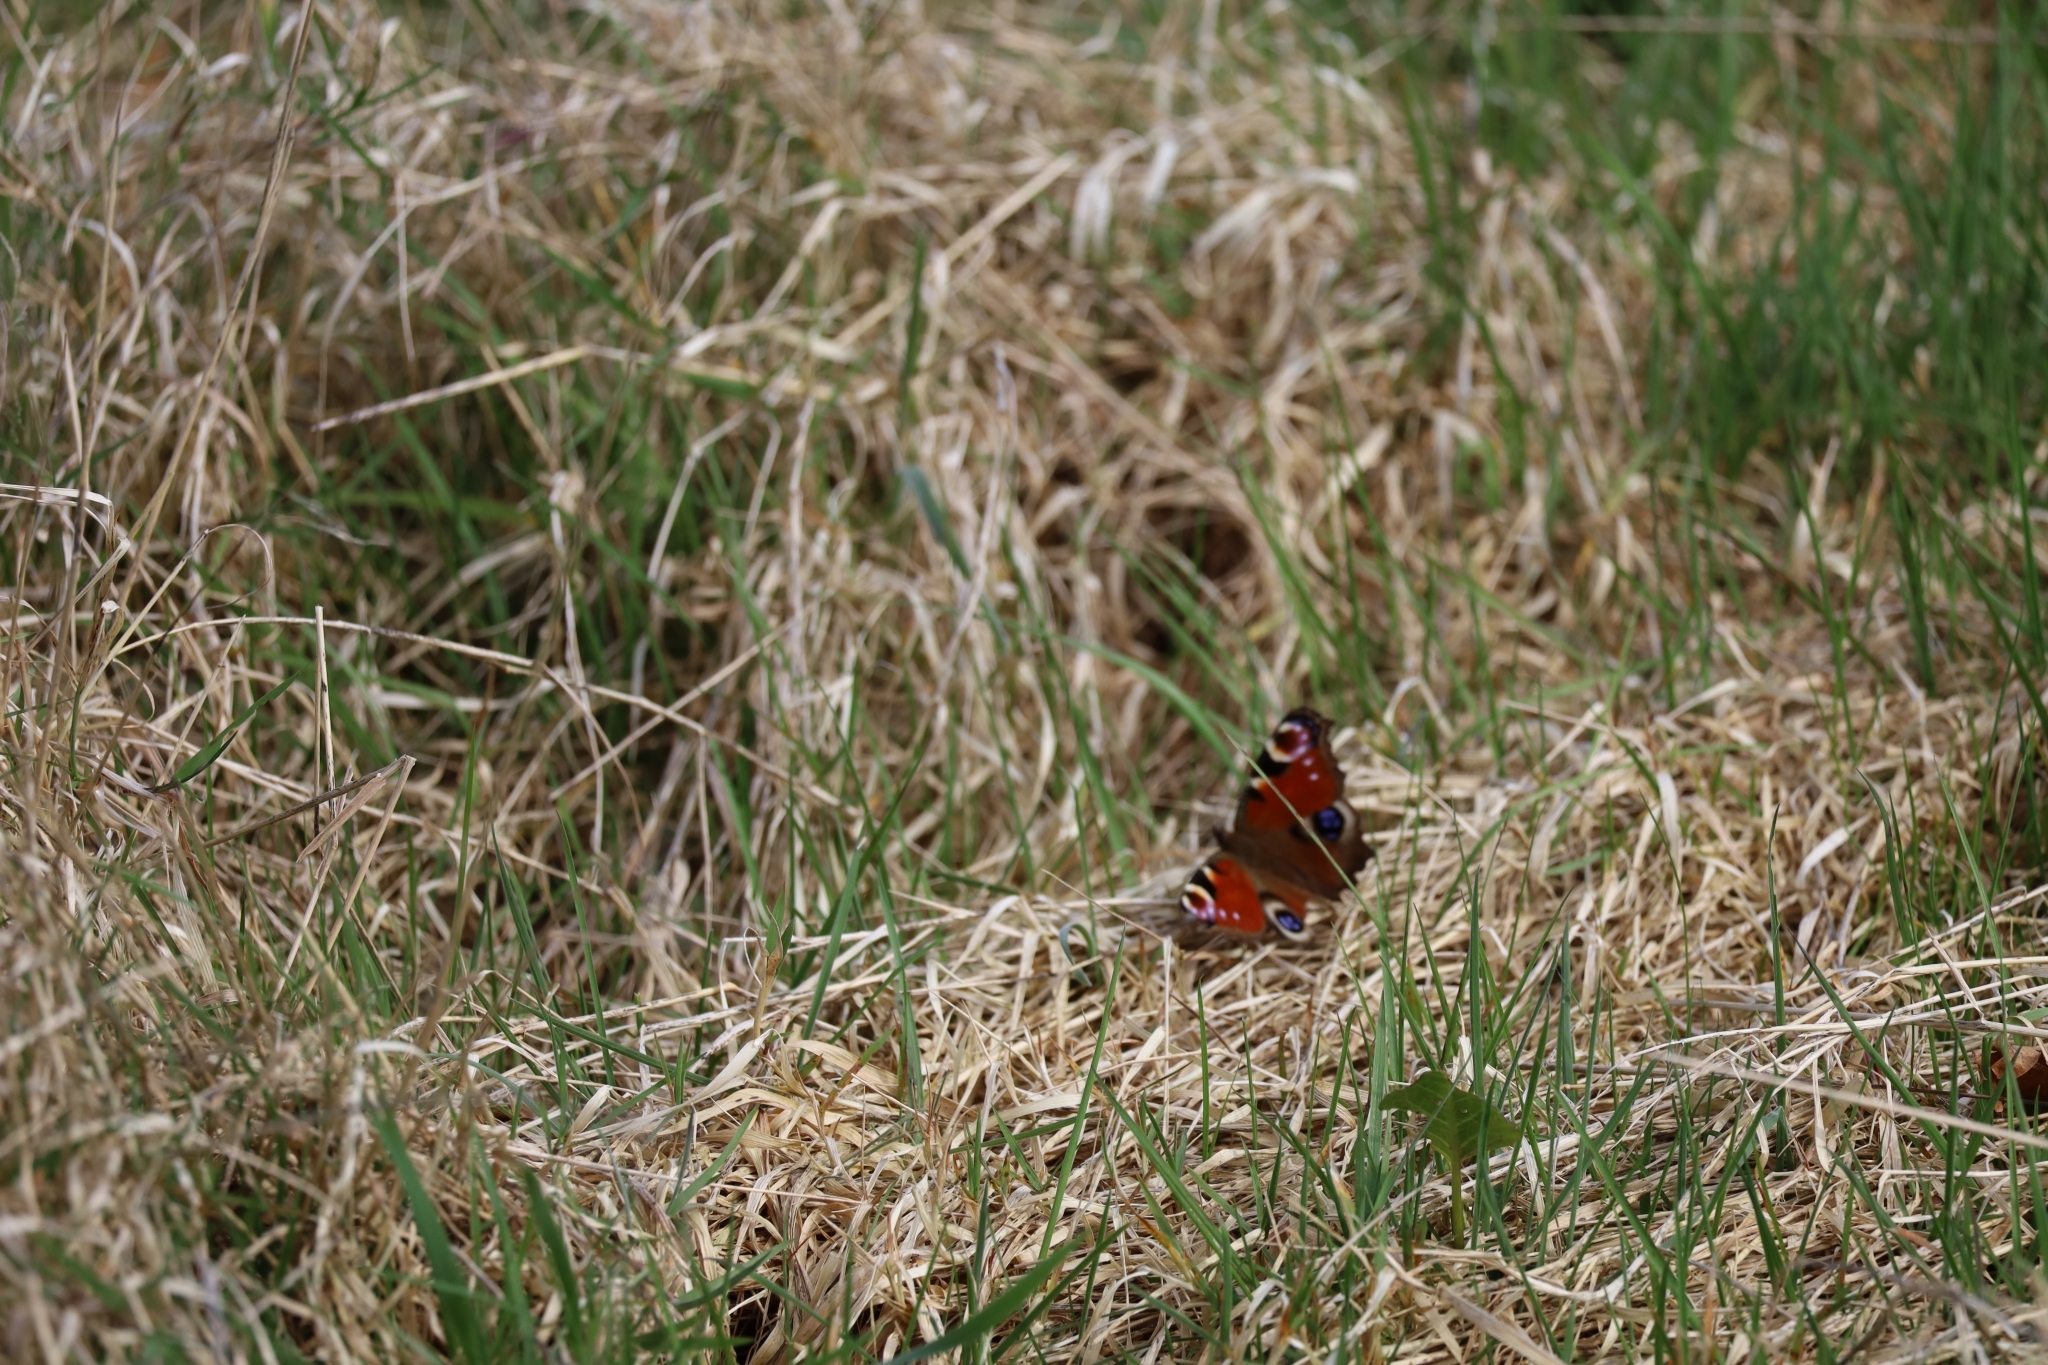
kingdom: Animalia
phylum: Arthropoda
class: Insecta
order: Lepidoptera
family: Nymphalidae
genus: Aglais
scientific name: Aglais io
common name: Peacock
